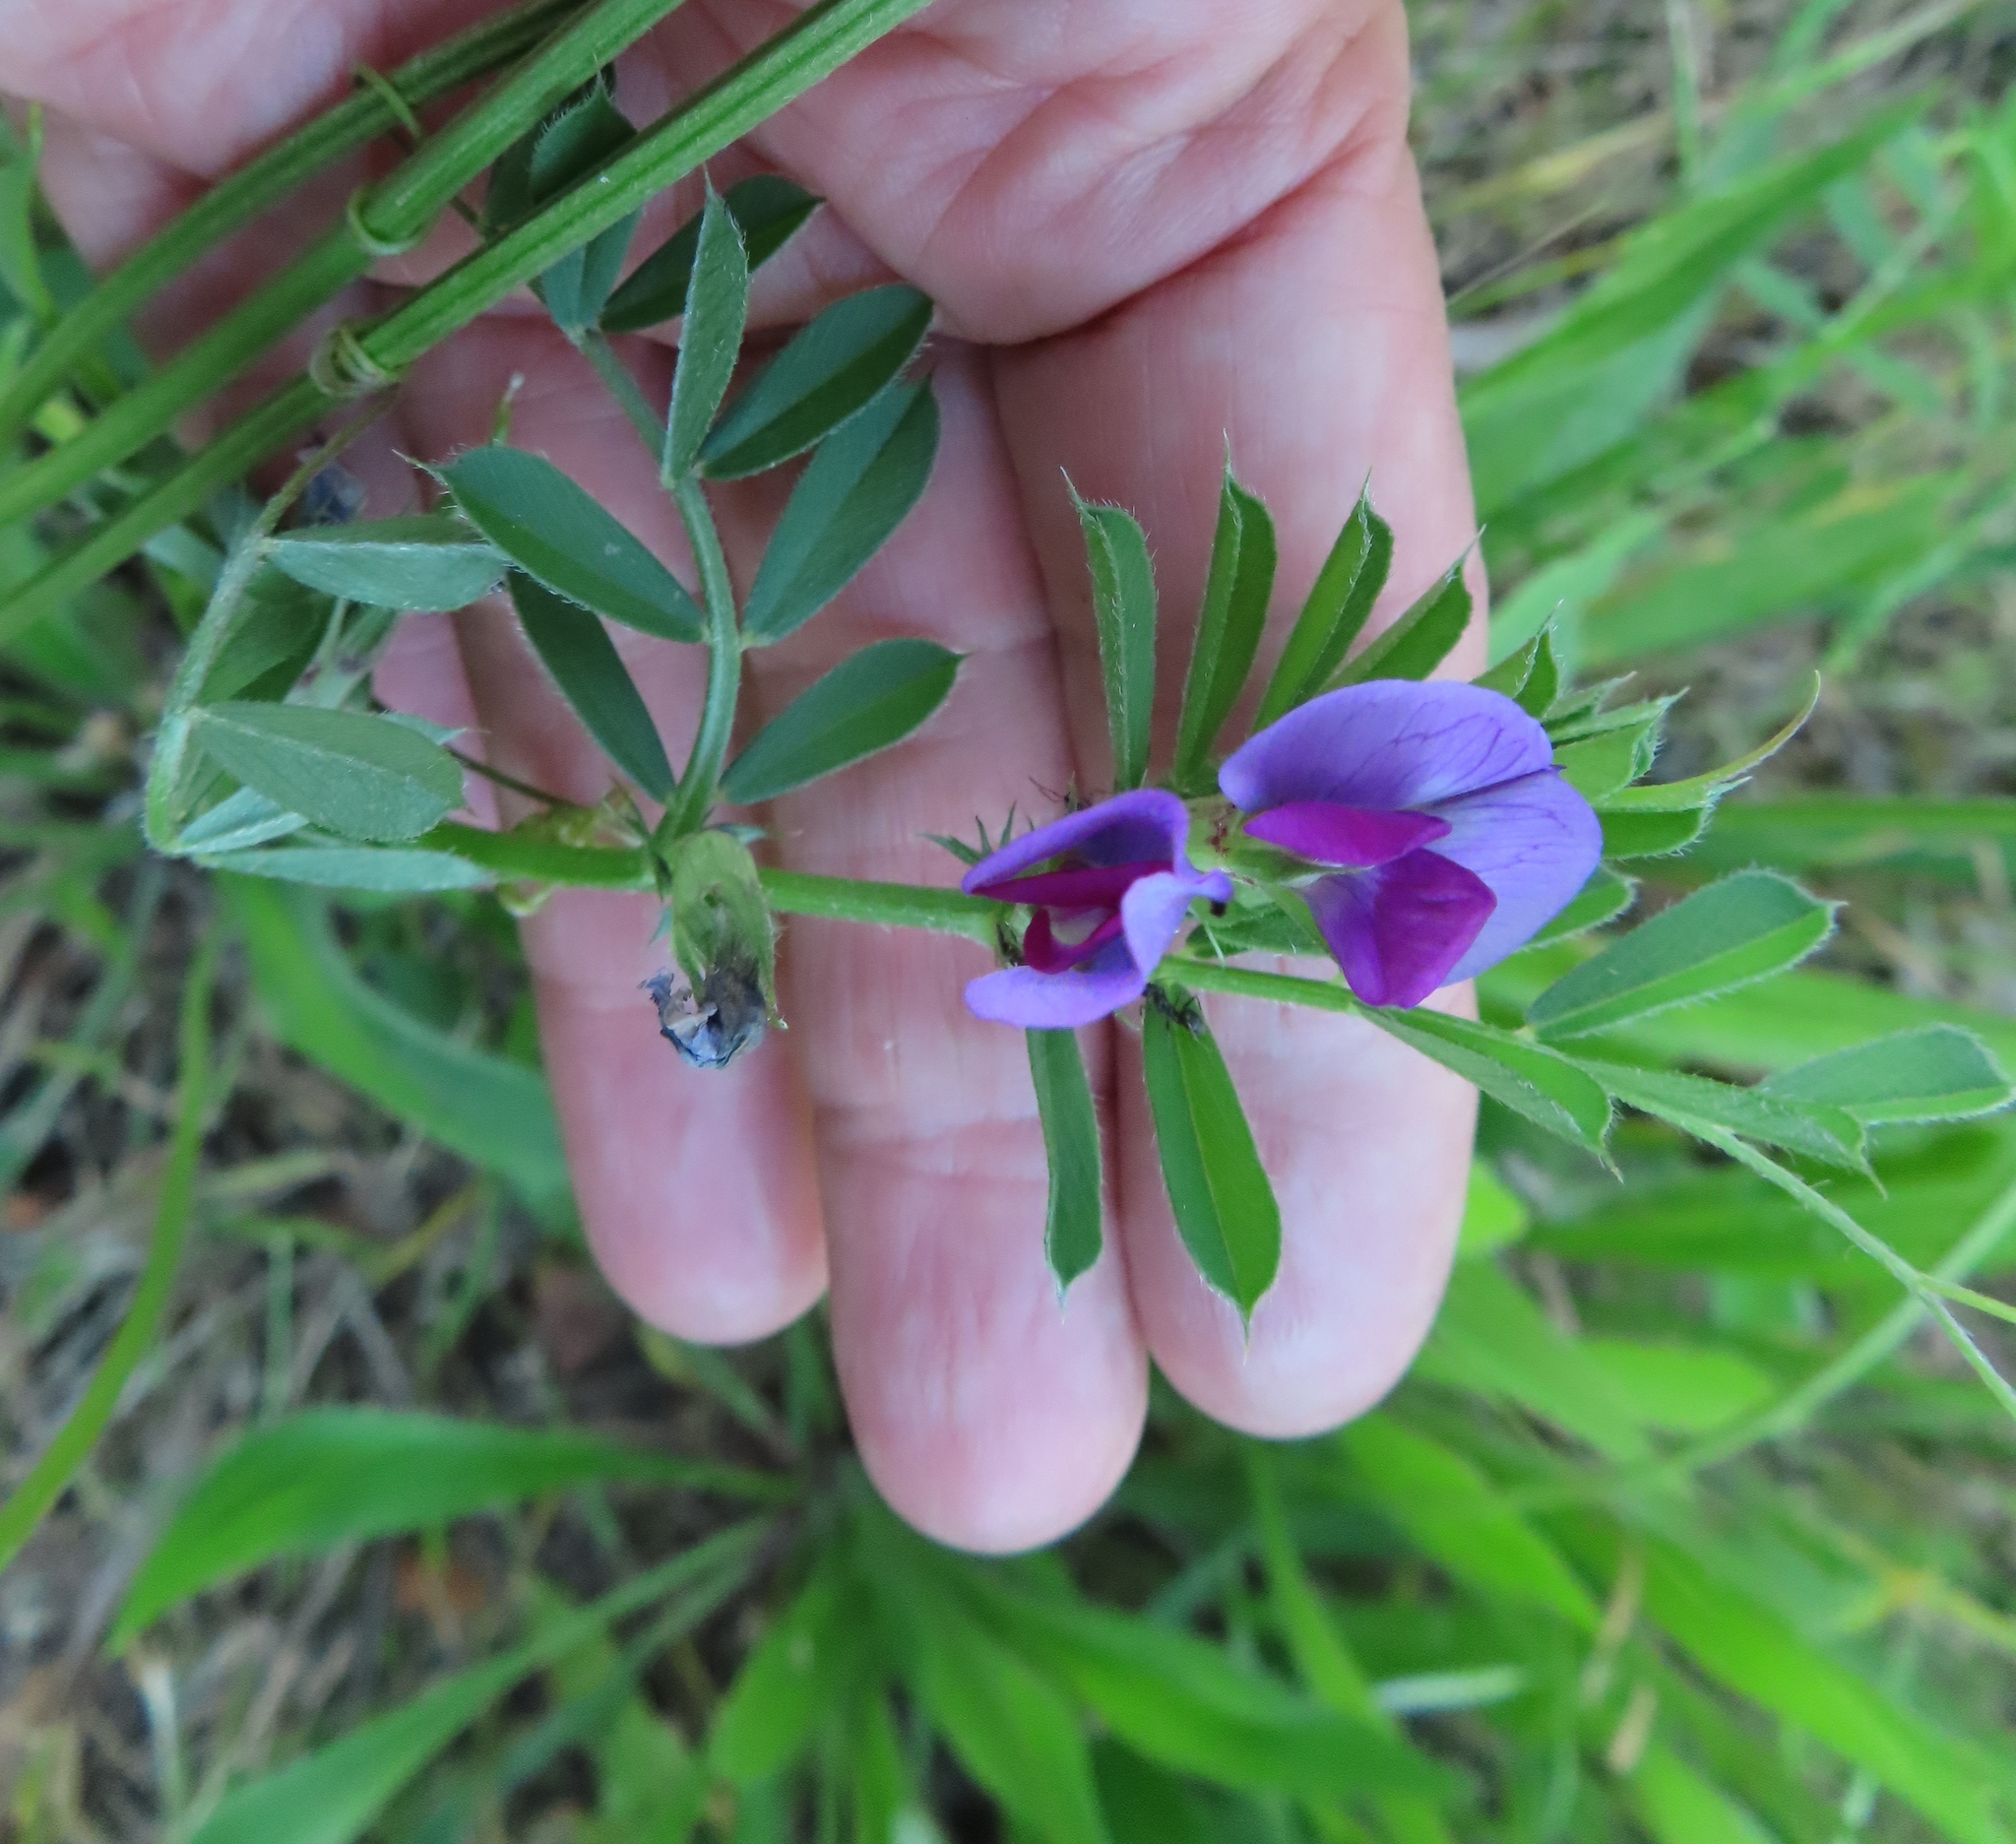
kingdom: Plantae
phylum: Tracheophyta
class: Magnoliopsida
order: Fabales
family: Fabaceae
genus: Vicia
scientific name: Vicia sativa
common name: Garden vetch
